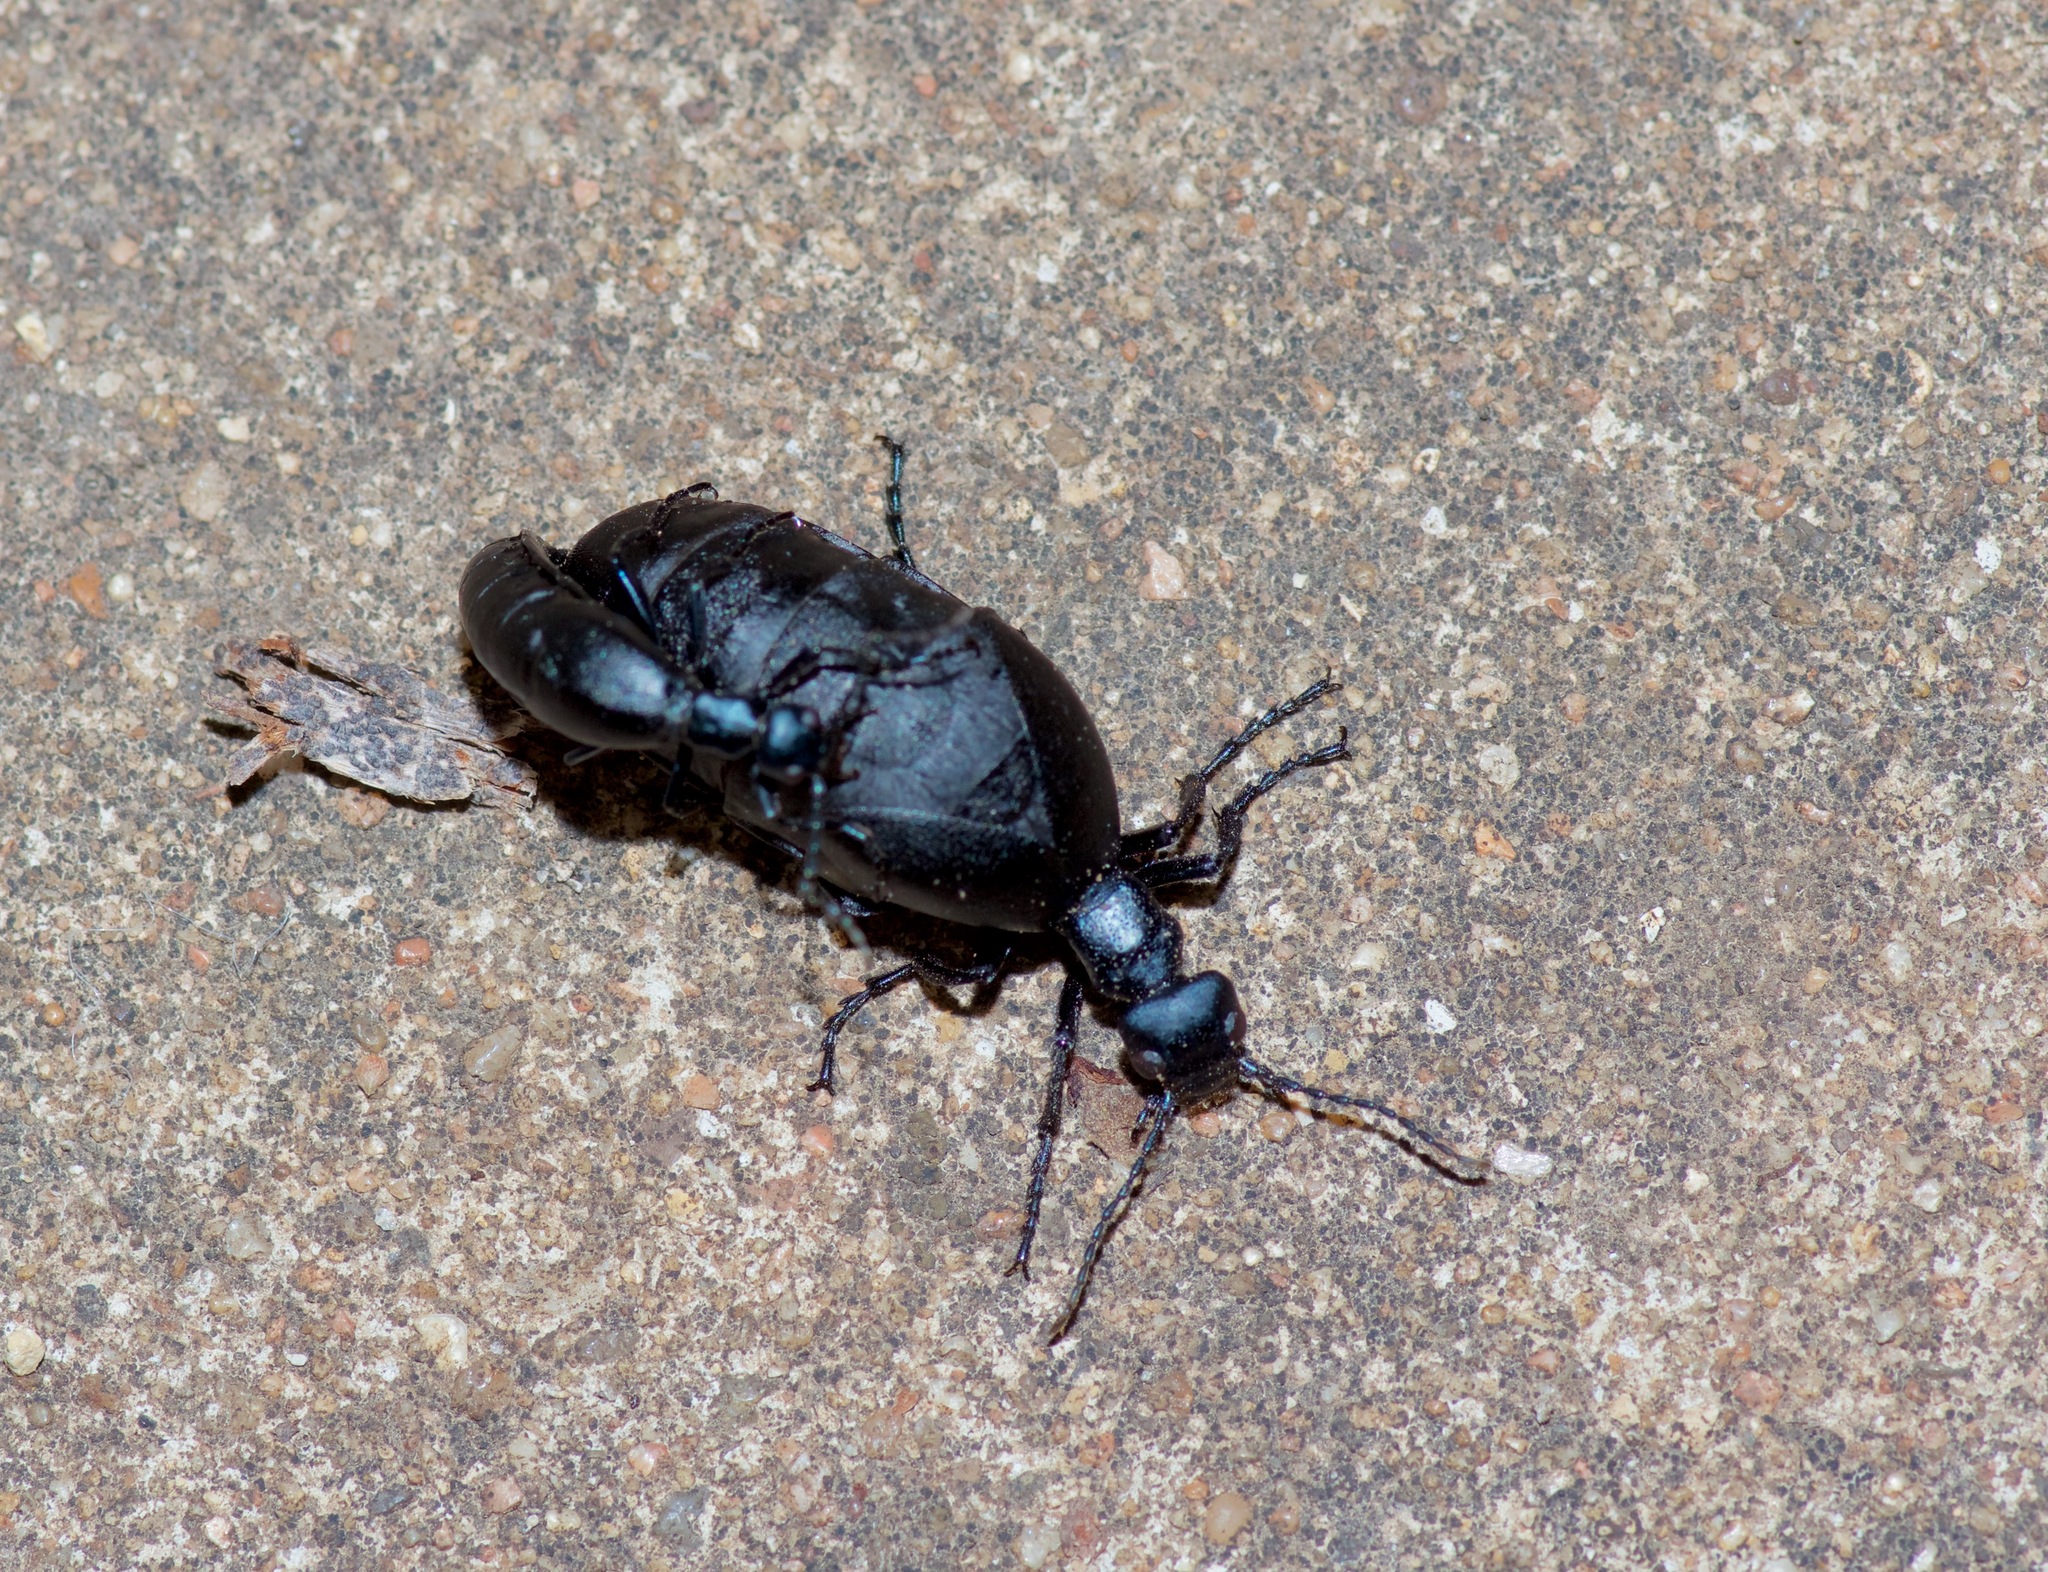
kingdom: Animalia
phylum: Arthropoda
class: Insecta
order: Coleoptera
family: Meloidae
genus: Meloe
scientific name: Meloe americanus
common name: Buttercup oil beetle
